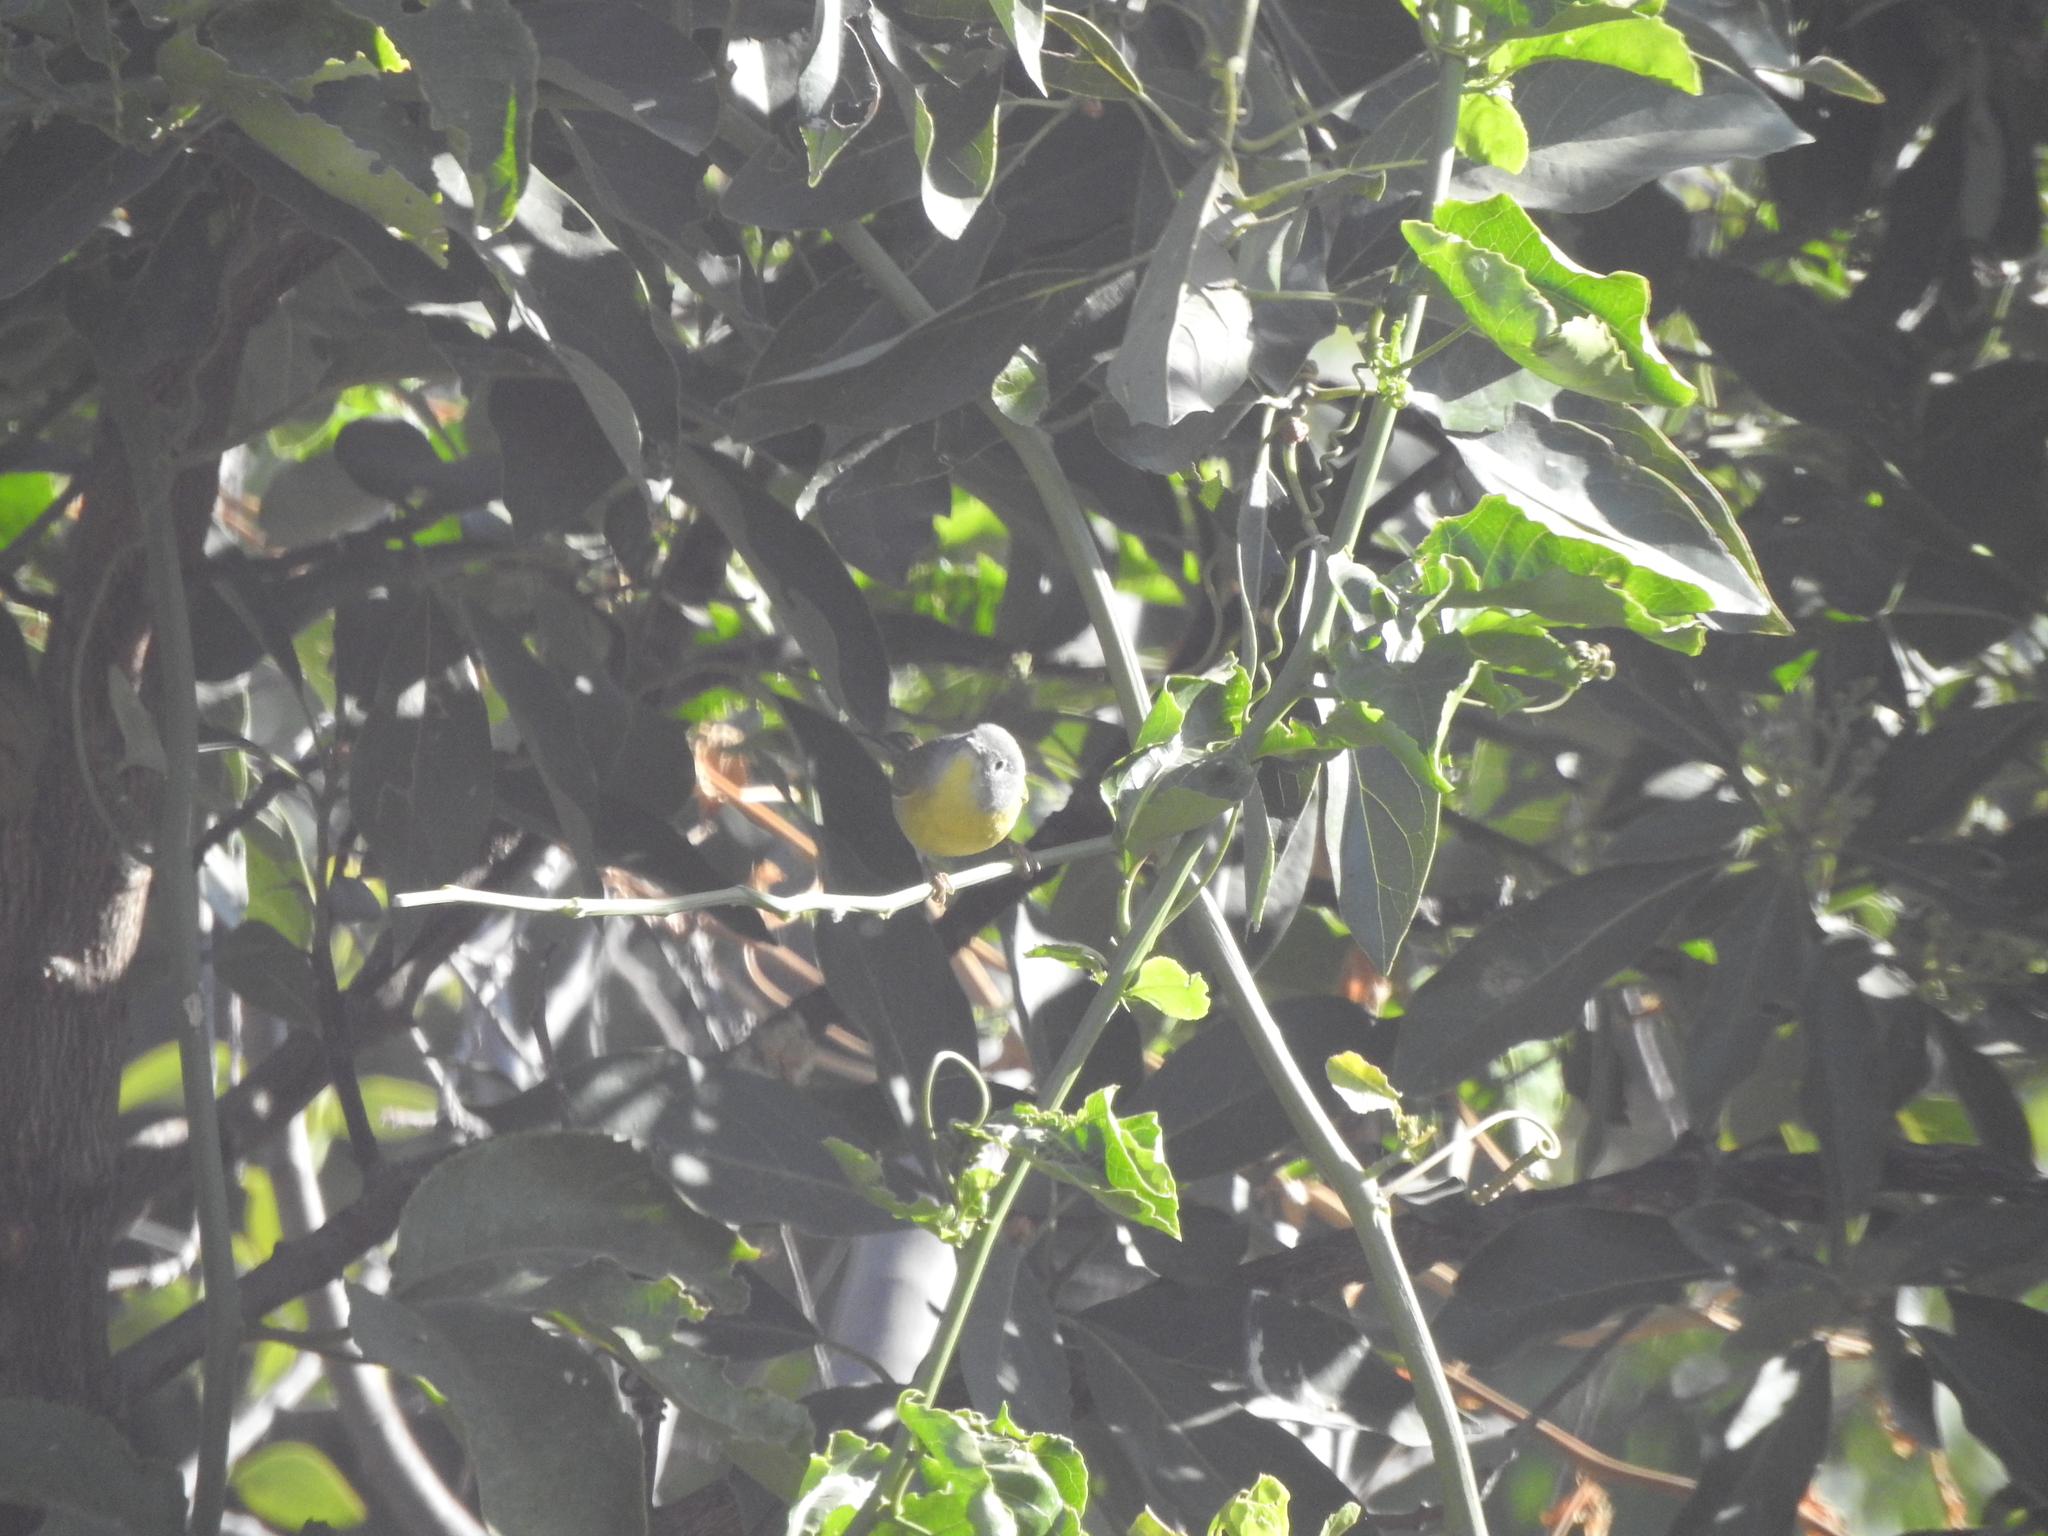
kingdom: Animalia
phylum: Chordata
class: Aves
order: Passeriformes
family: Parulidae
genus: Leiothlypis
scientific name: Leiothlypis ruficapilla
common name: Nashville warbler
